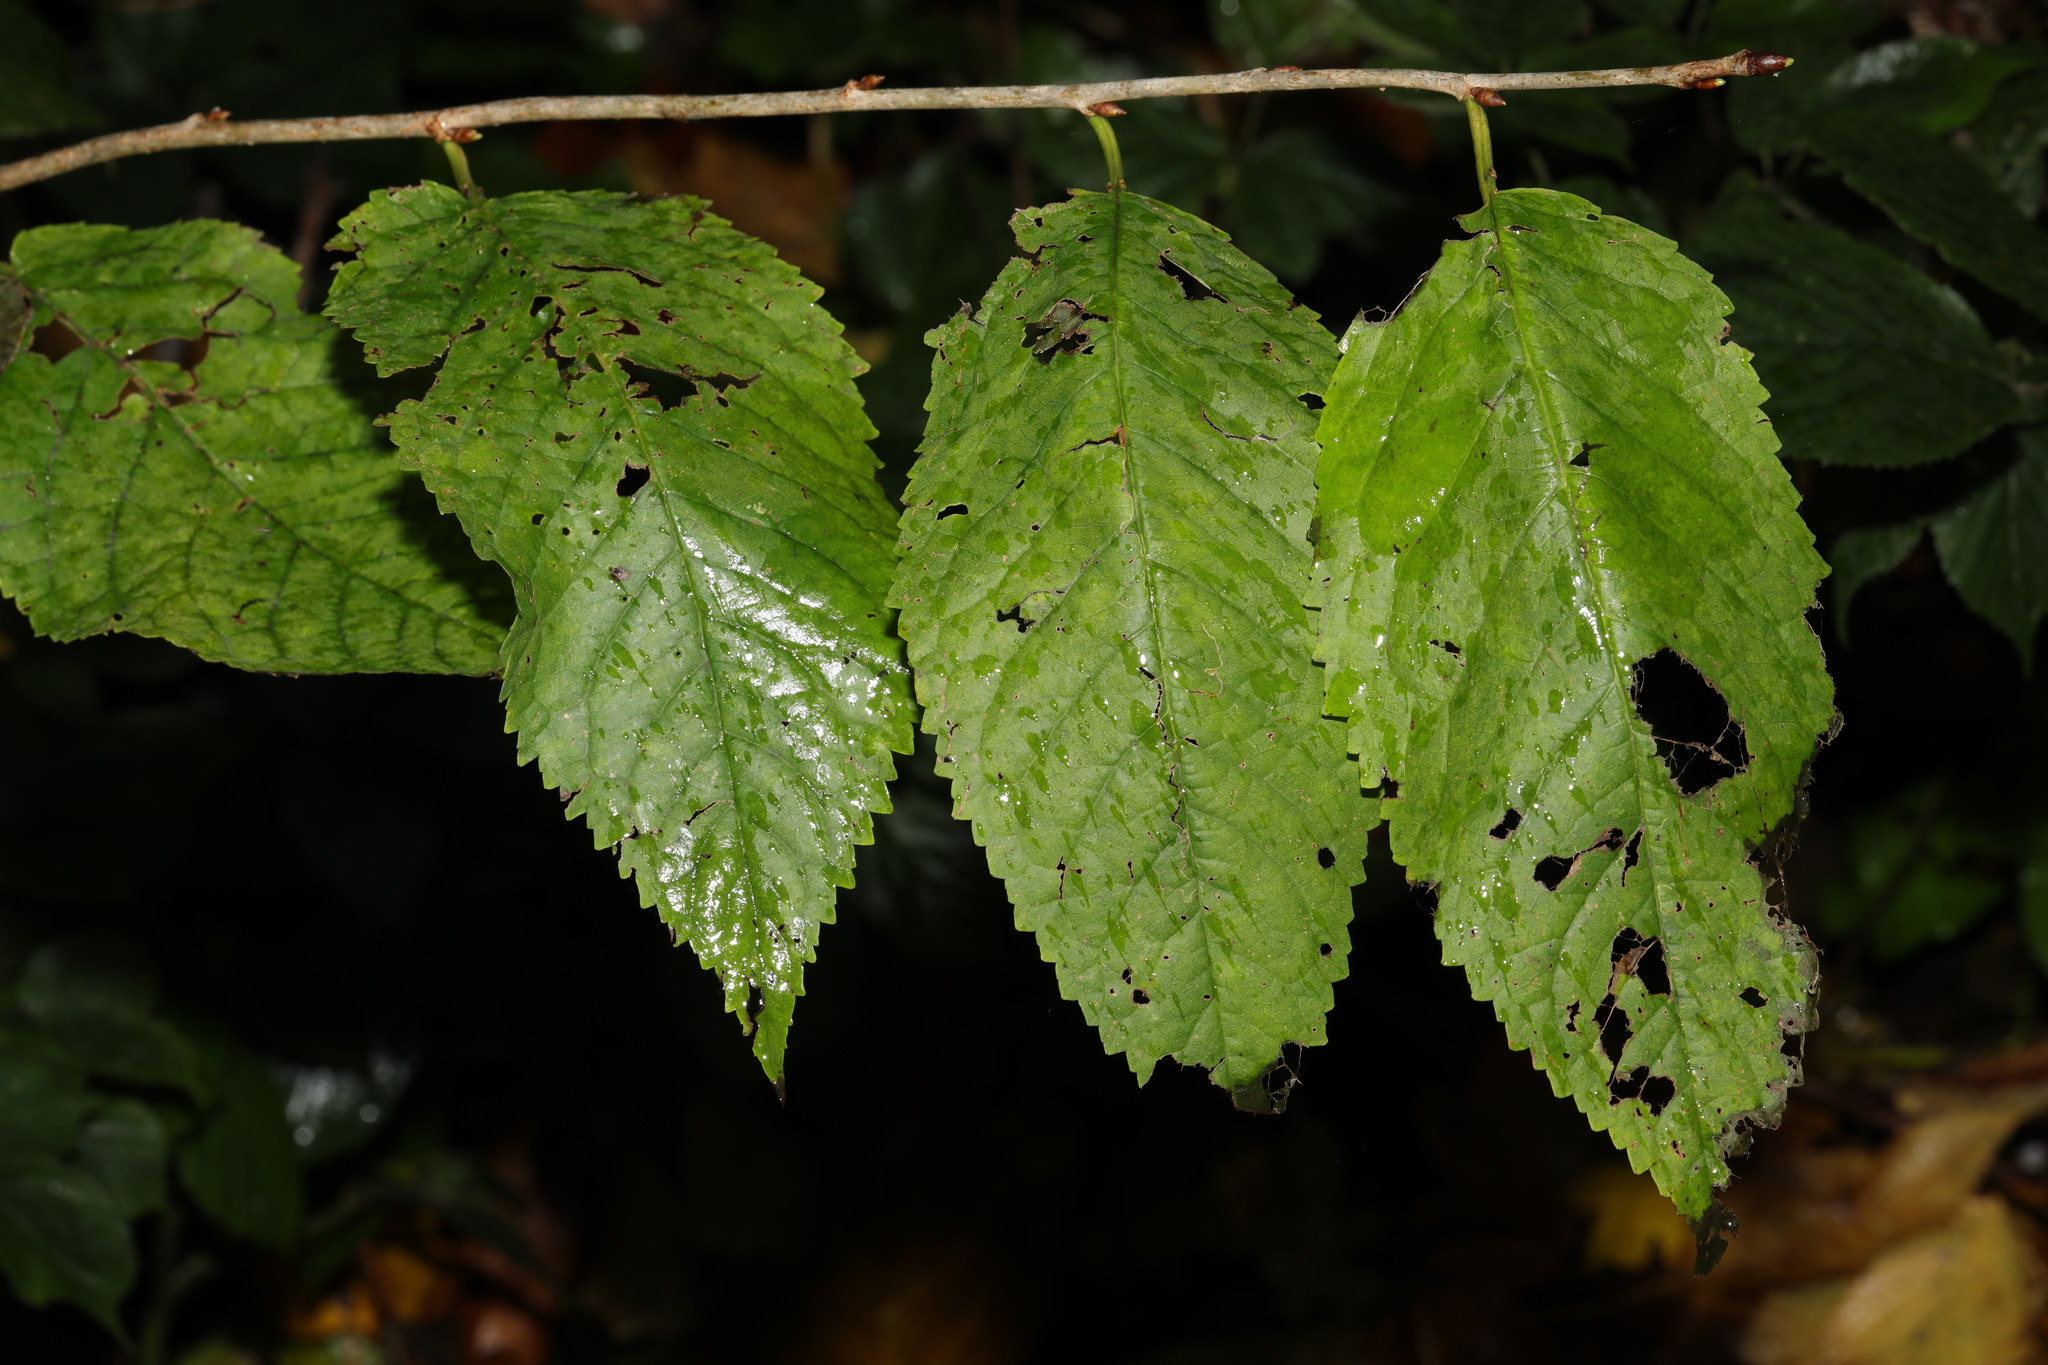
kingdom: Plantae
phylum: Tracheophyta
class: Magnoliopsida
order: Rosales
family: Rosaceae
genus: Prunus
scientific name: Prunus avium
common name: Sweet cherry
